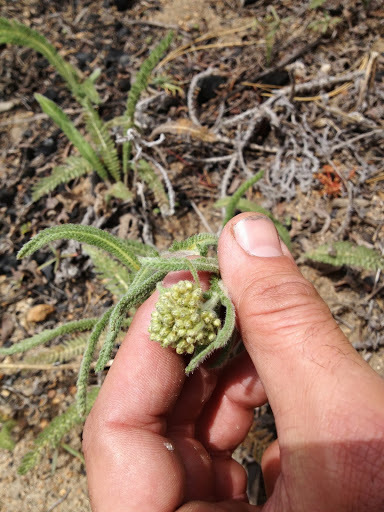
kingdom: Plantae
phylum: Tracheophyta
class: Magnoliopsida
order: Asterales
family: Asteraceae
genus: Achillea
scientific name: Achillea millefolium
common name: Yarrow
